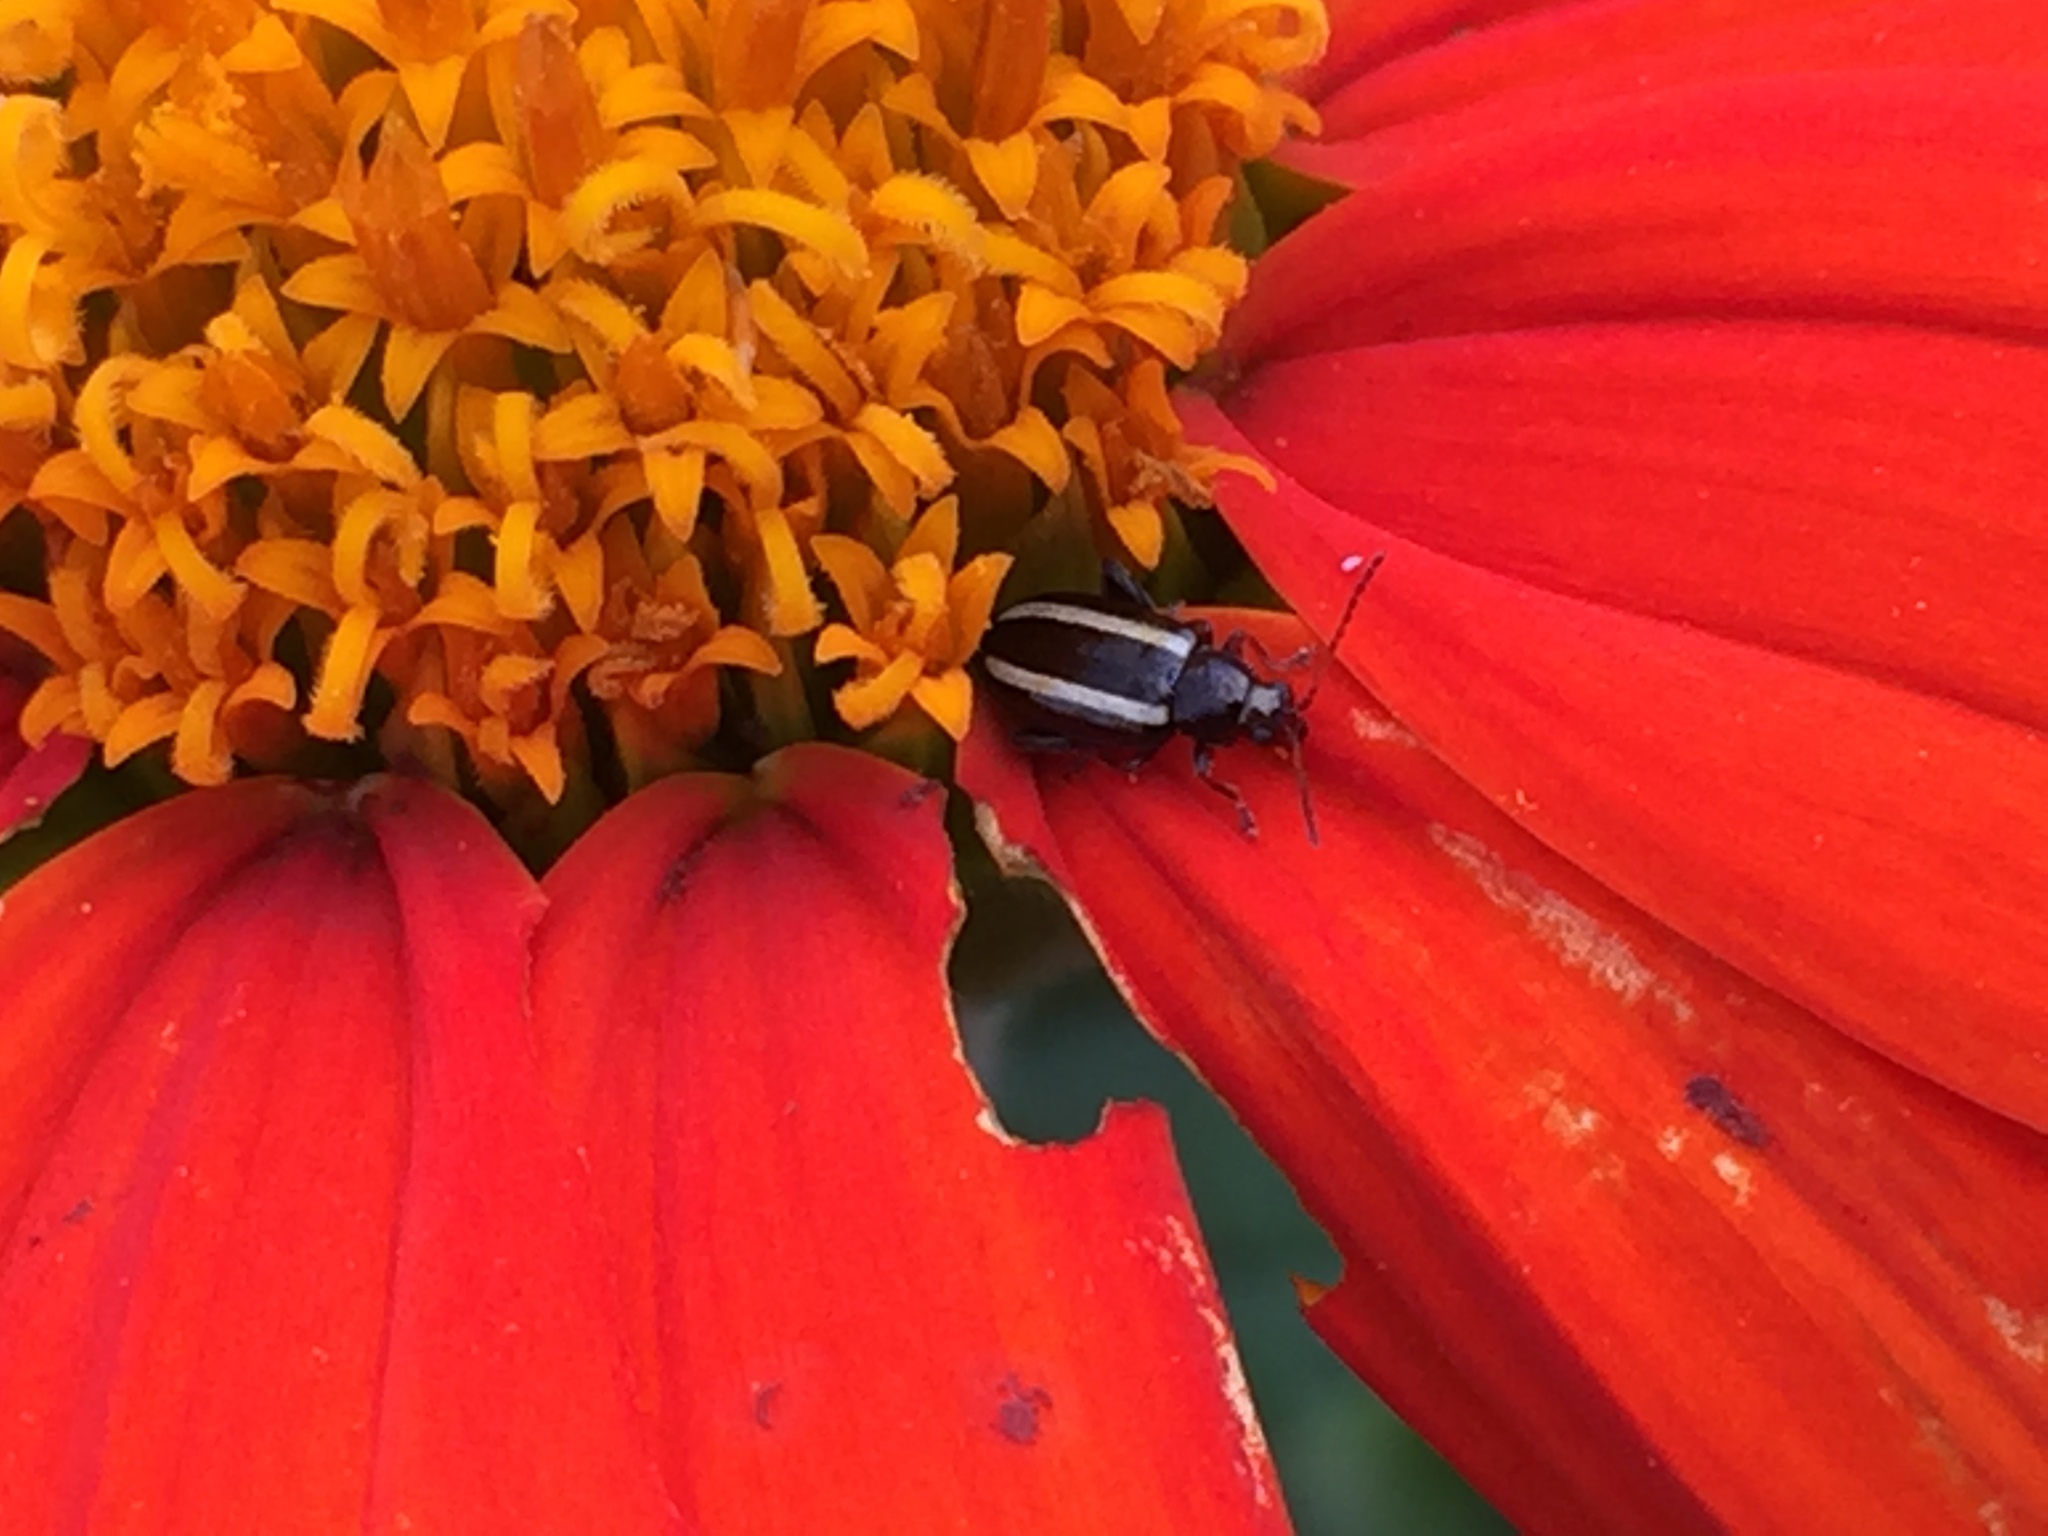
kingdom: Animalia
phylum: Arthropoda
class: Insecta
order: Coleoptera
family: Chrysomelidae
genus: Systena
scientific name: Systena elongata
